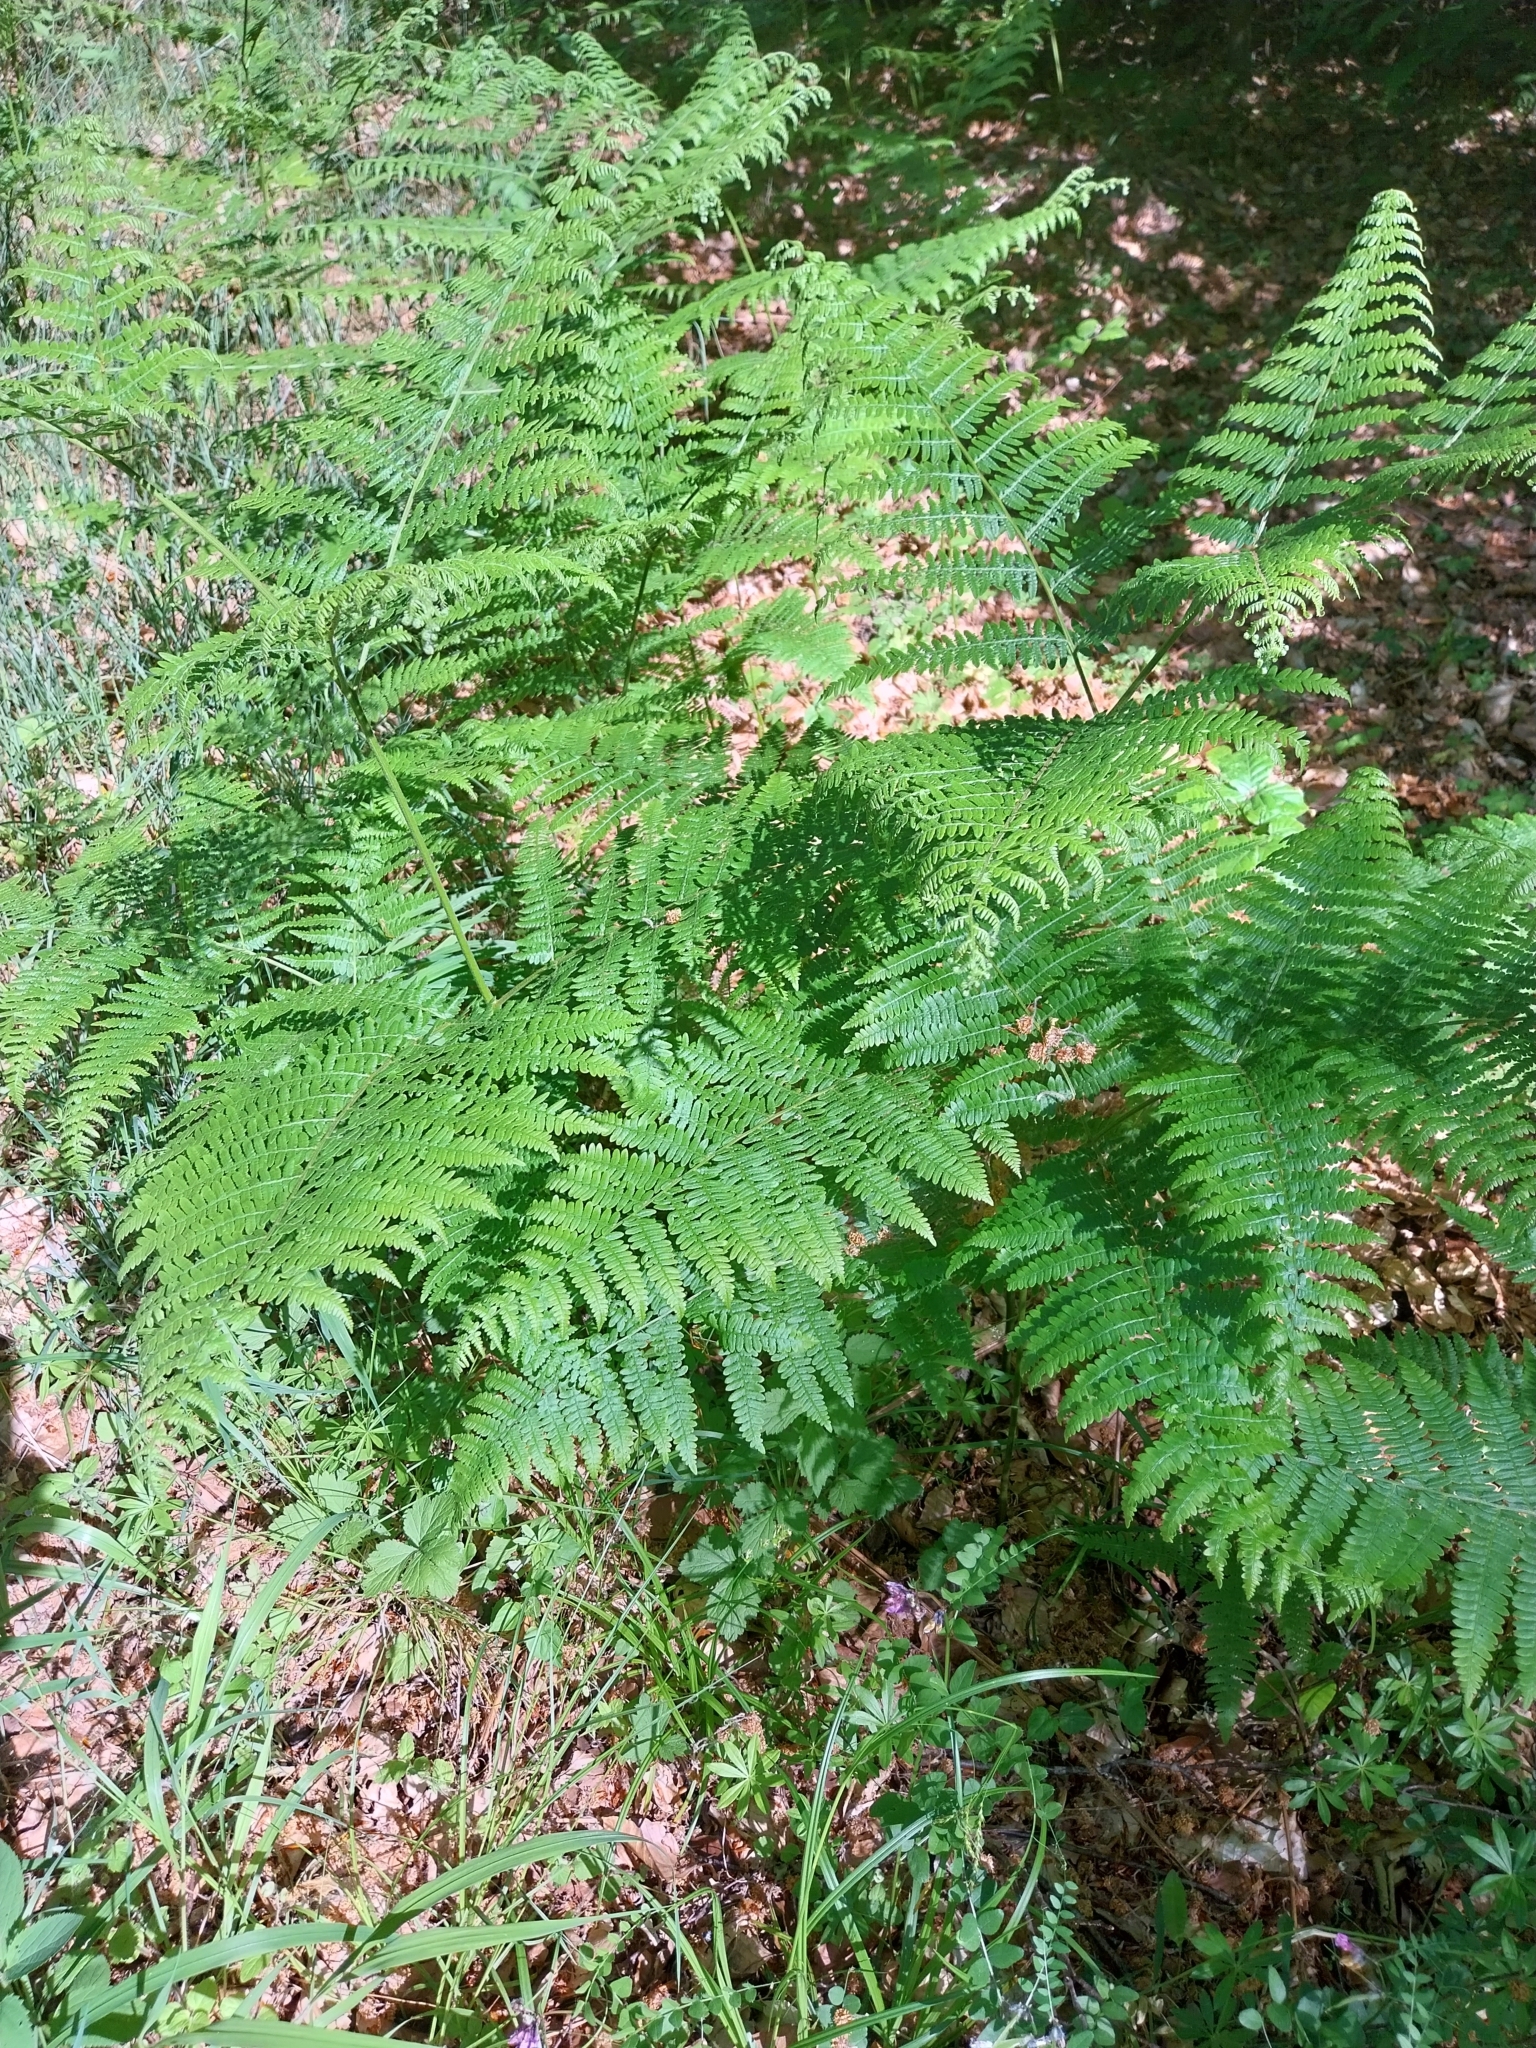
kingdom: Plantae
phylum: Tracheophyta
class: Polypodiopsida
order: Polypodiales
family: Dennstaedtiaceae
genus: Pteridium
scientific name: Pteridium aquilinum
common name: Bracken
